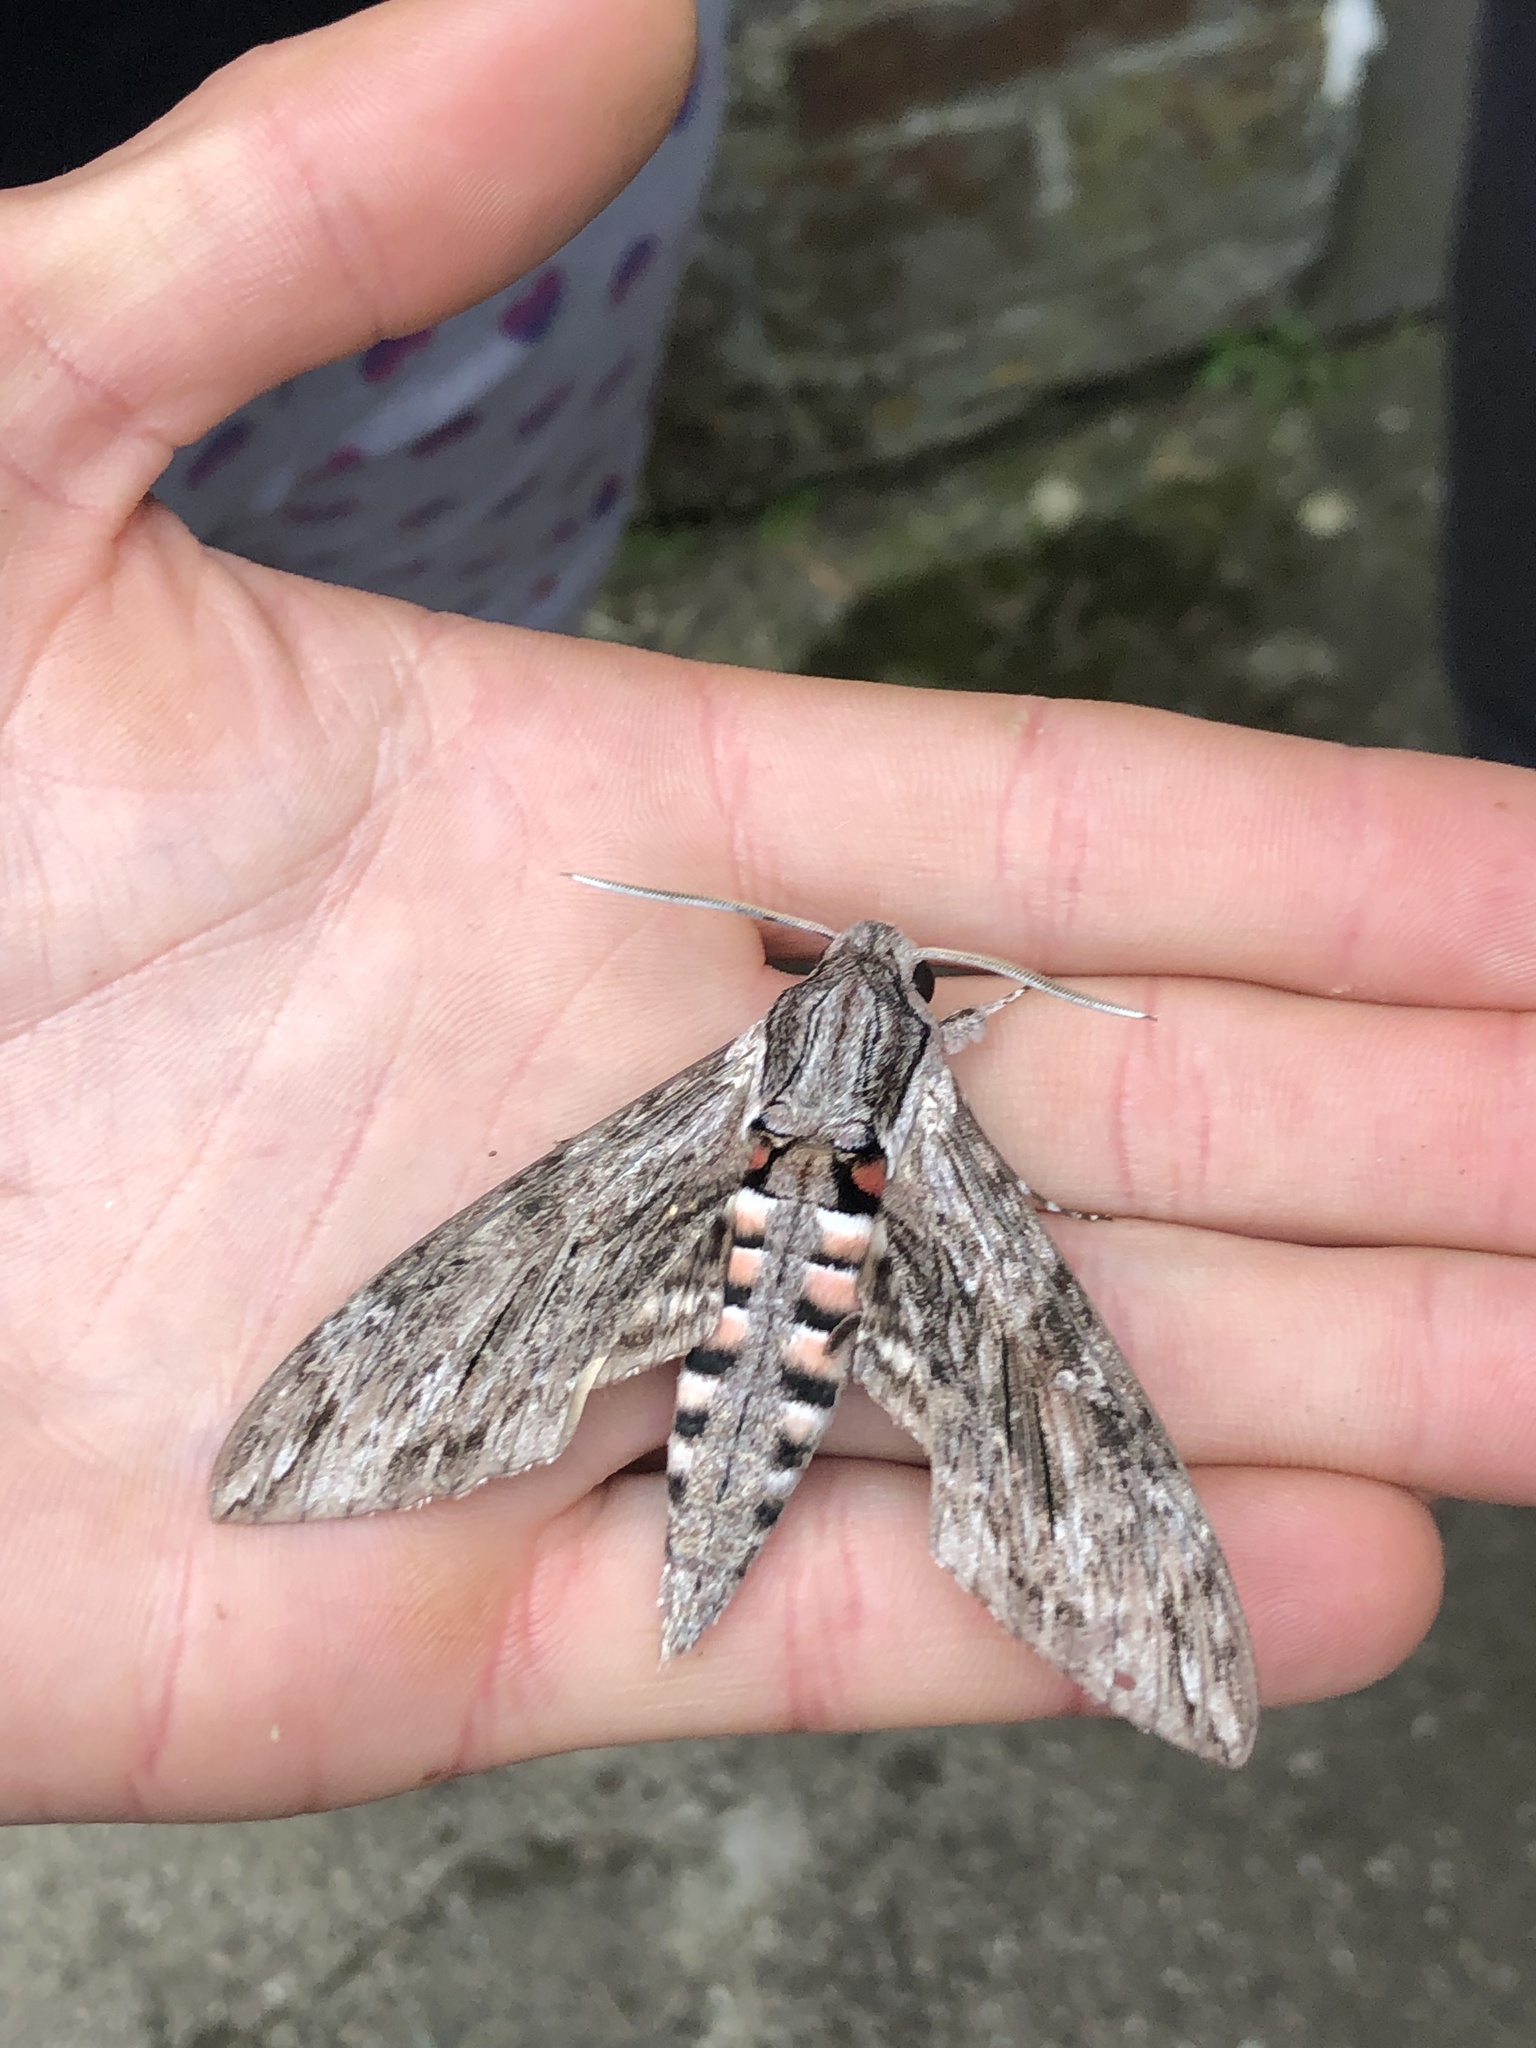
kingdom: Animalia
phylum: Arthropoda
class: Insecta
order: Lepidoptera
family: Sphingidae
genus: Agrius
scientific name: Agrius convolvuli
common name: Convolvulus hawkmoth
